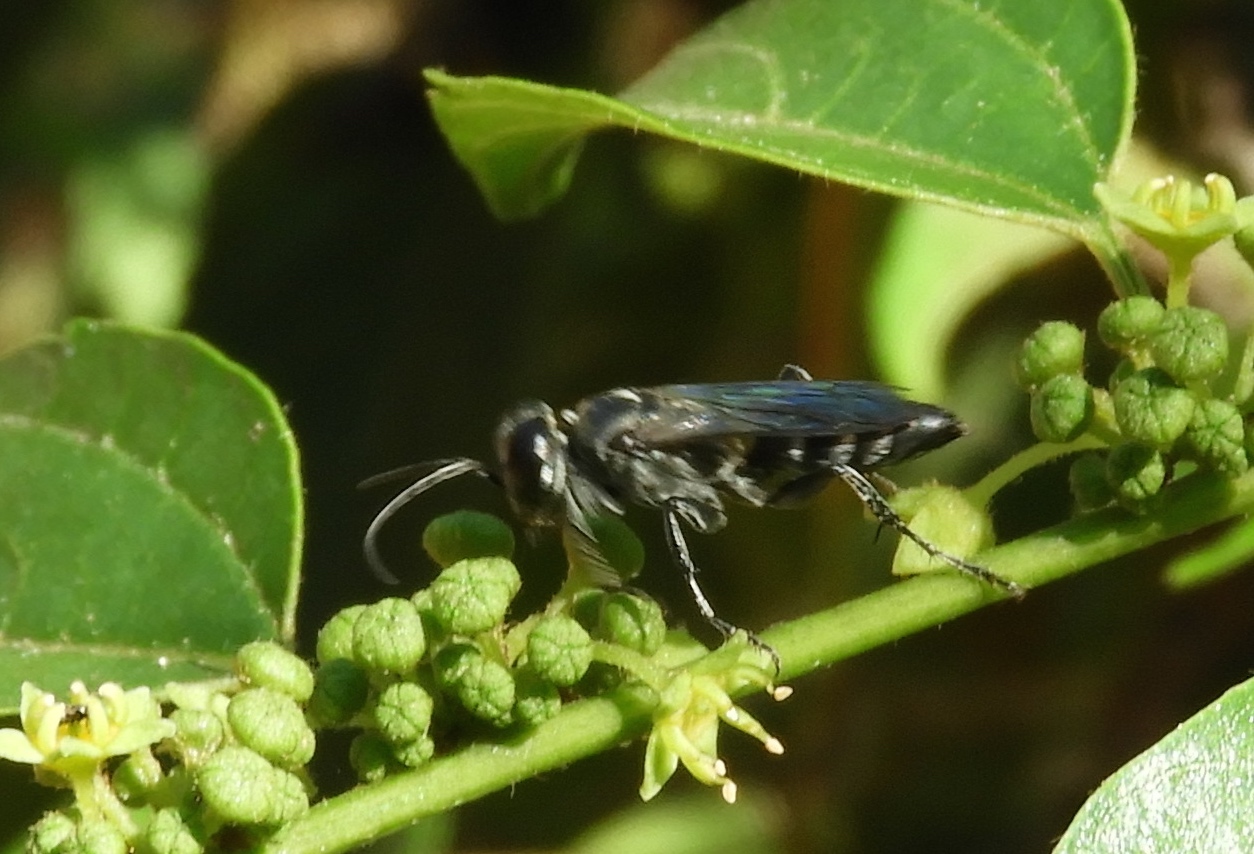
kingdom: Animalia
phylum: Arthropoda
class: Insecta
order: Hymenoptera
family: Crabronidae
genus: Liris
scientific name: Liris
